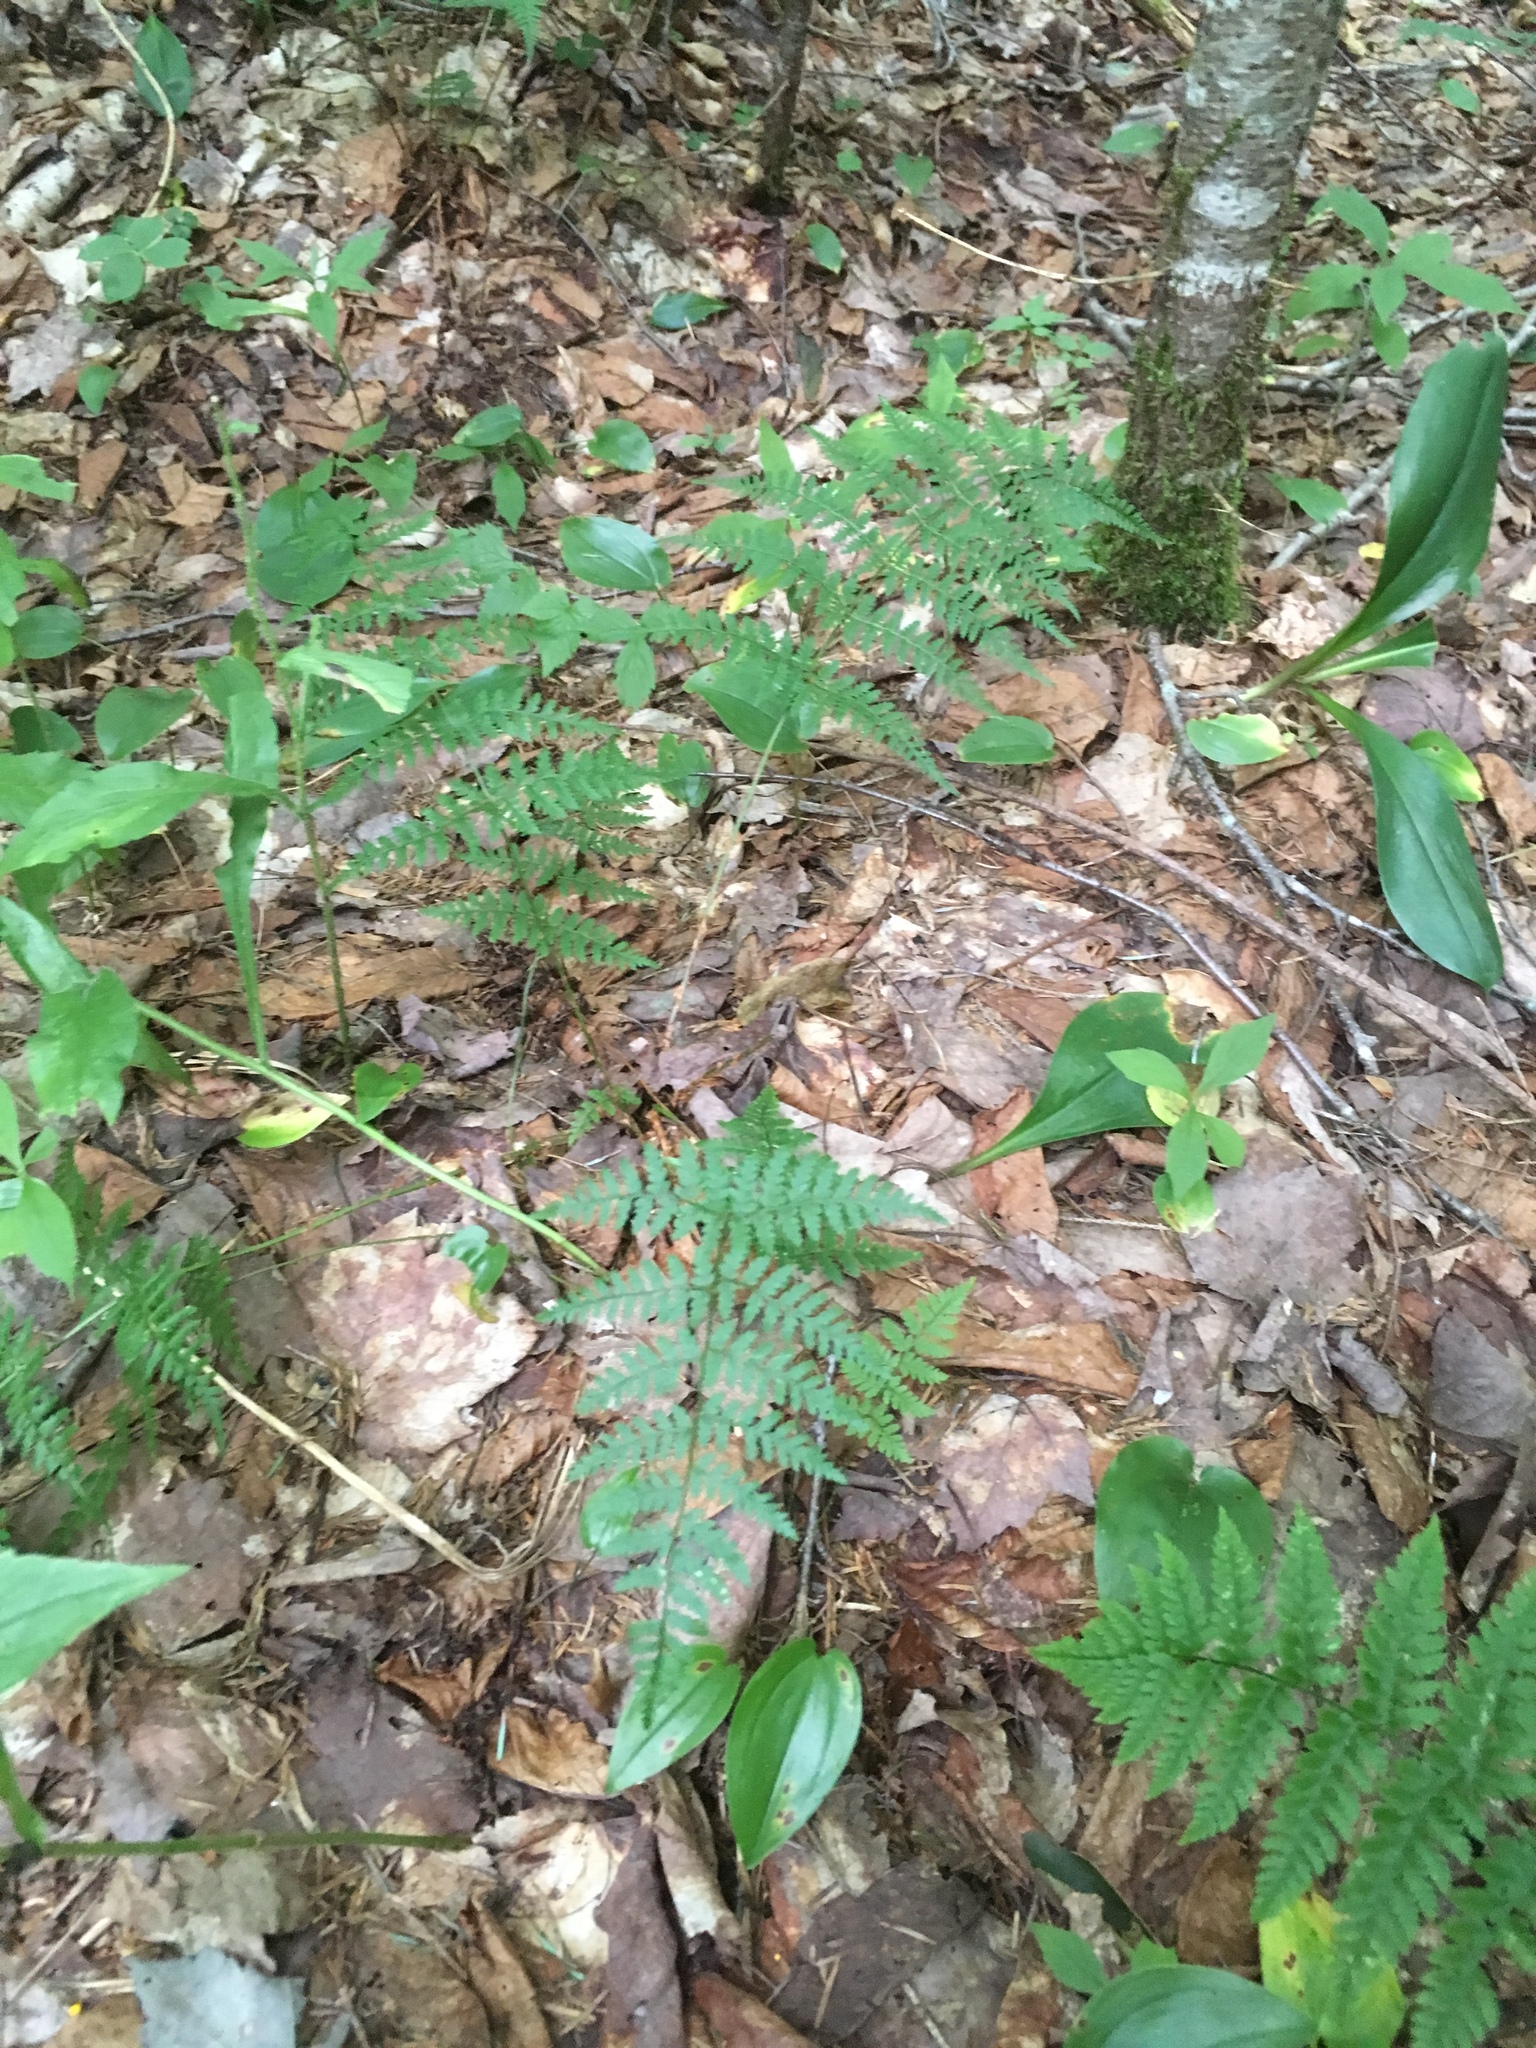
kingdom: Plantae
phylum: Tracheophyta
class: Polypodiopsida
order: Polypodiales
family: Dryopteridaceae
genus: Dryopteris
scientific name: Dryopteris intermedia
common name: Evergreen wood fern
